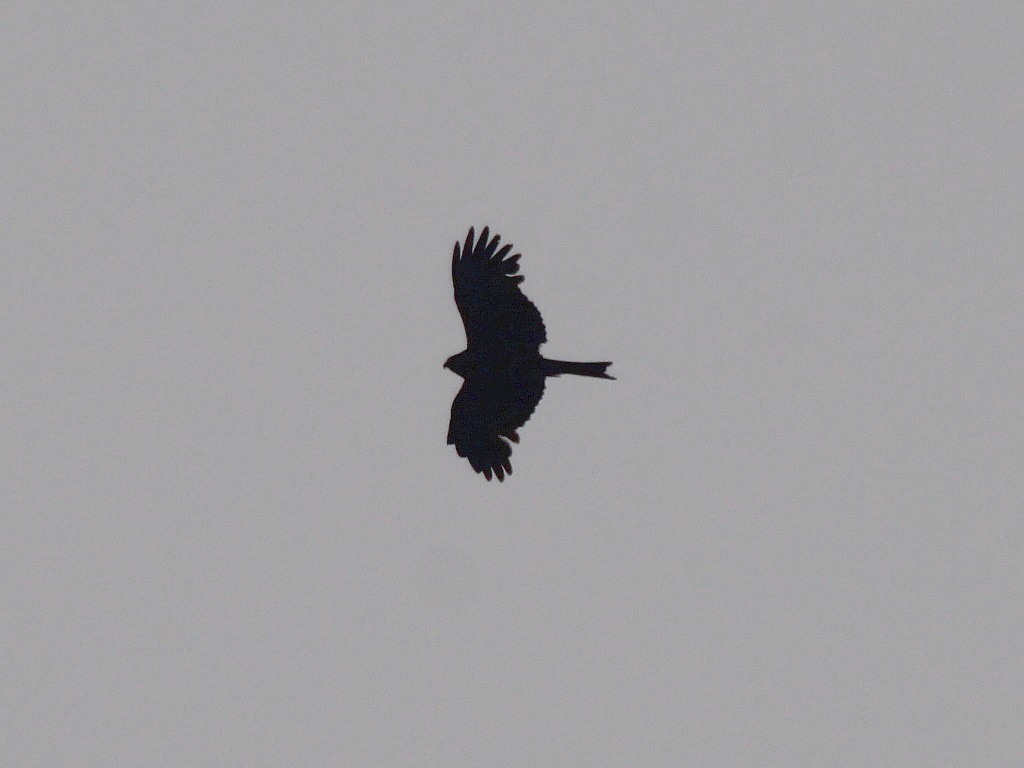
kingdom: Animalia
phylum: Chordata
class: Aves
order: Accipitriformes
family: Accipitridae
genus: Milvus
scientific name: Milvus migrans
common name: Black kite
